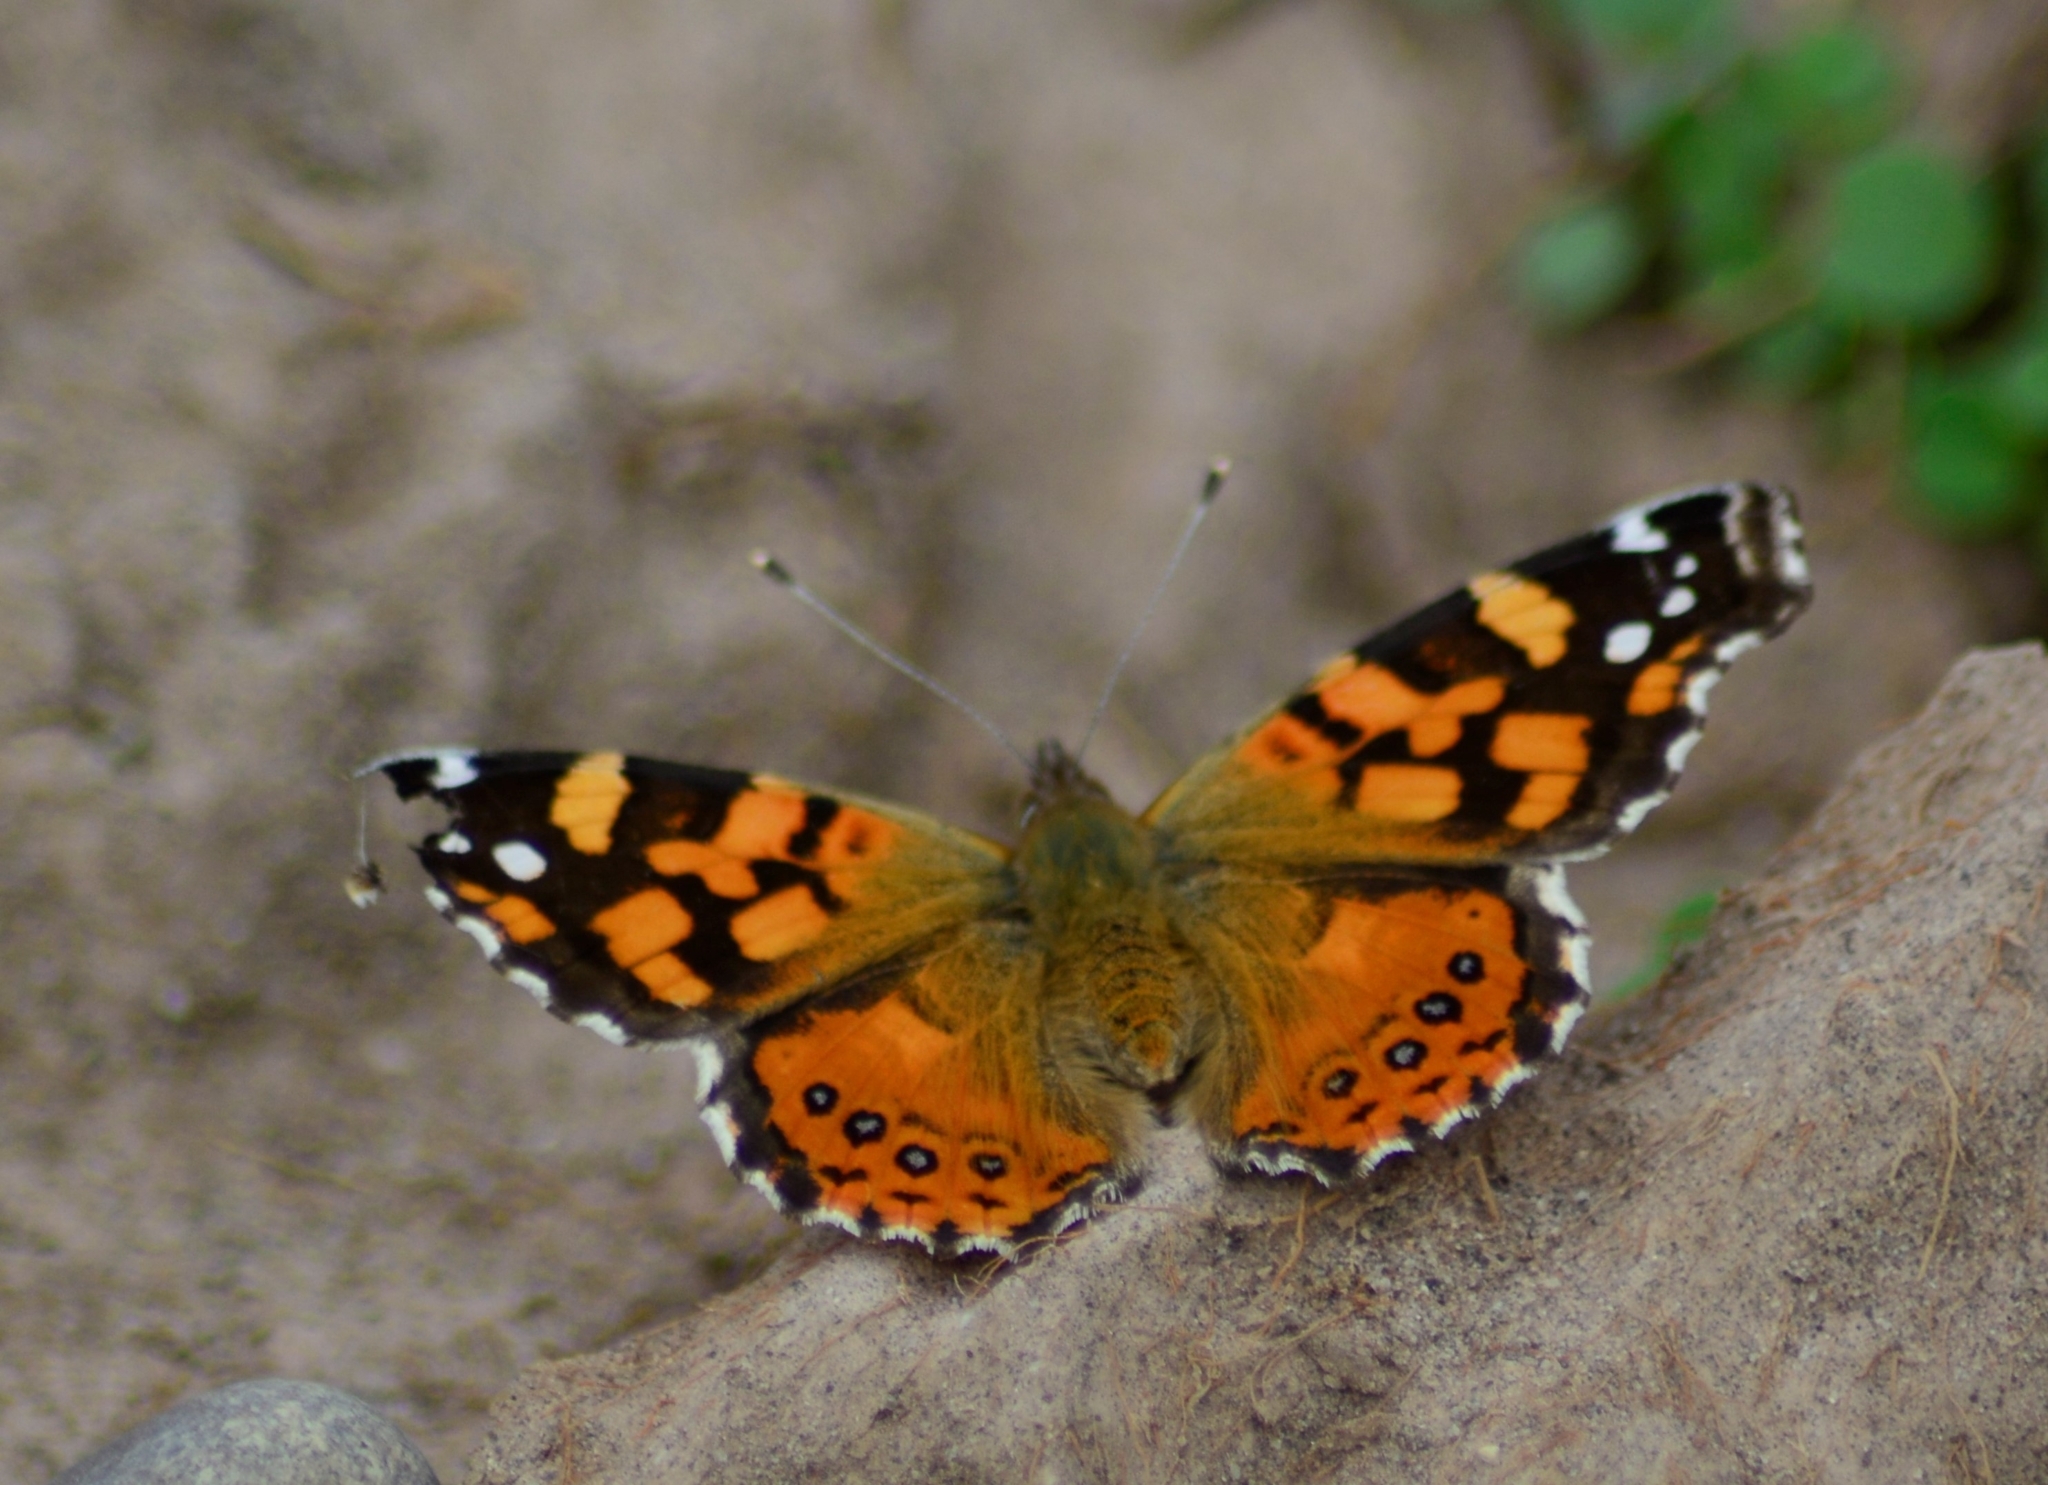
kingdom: Animalia
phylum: Arthropoda
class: Insecta
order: Lepidoptera
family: Nymphalidae
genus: Vanessa
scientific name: Vanessa carye
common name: Subtropical lady
